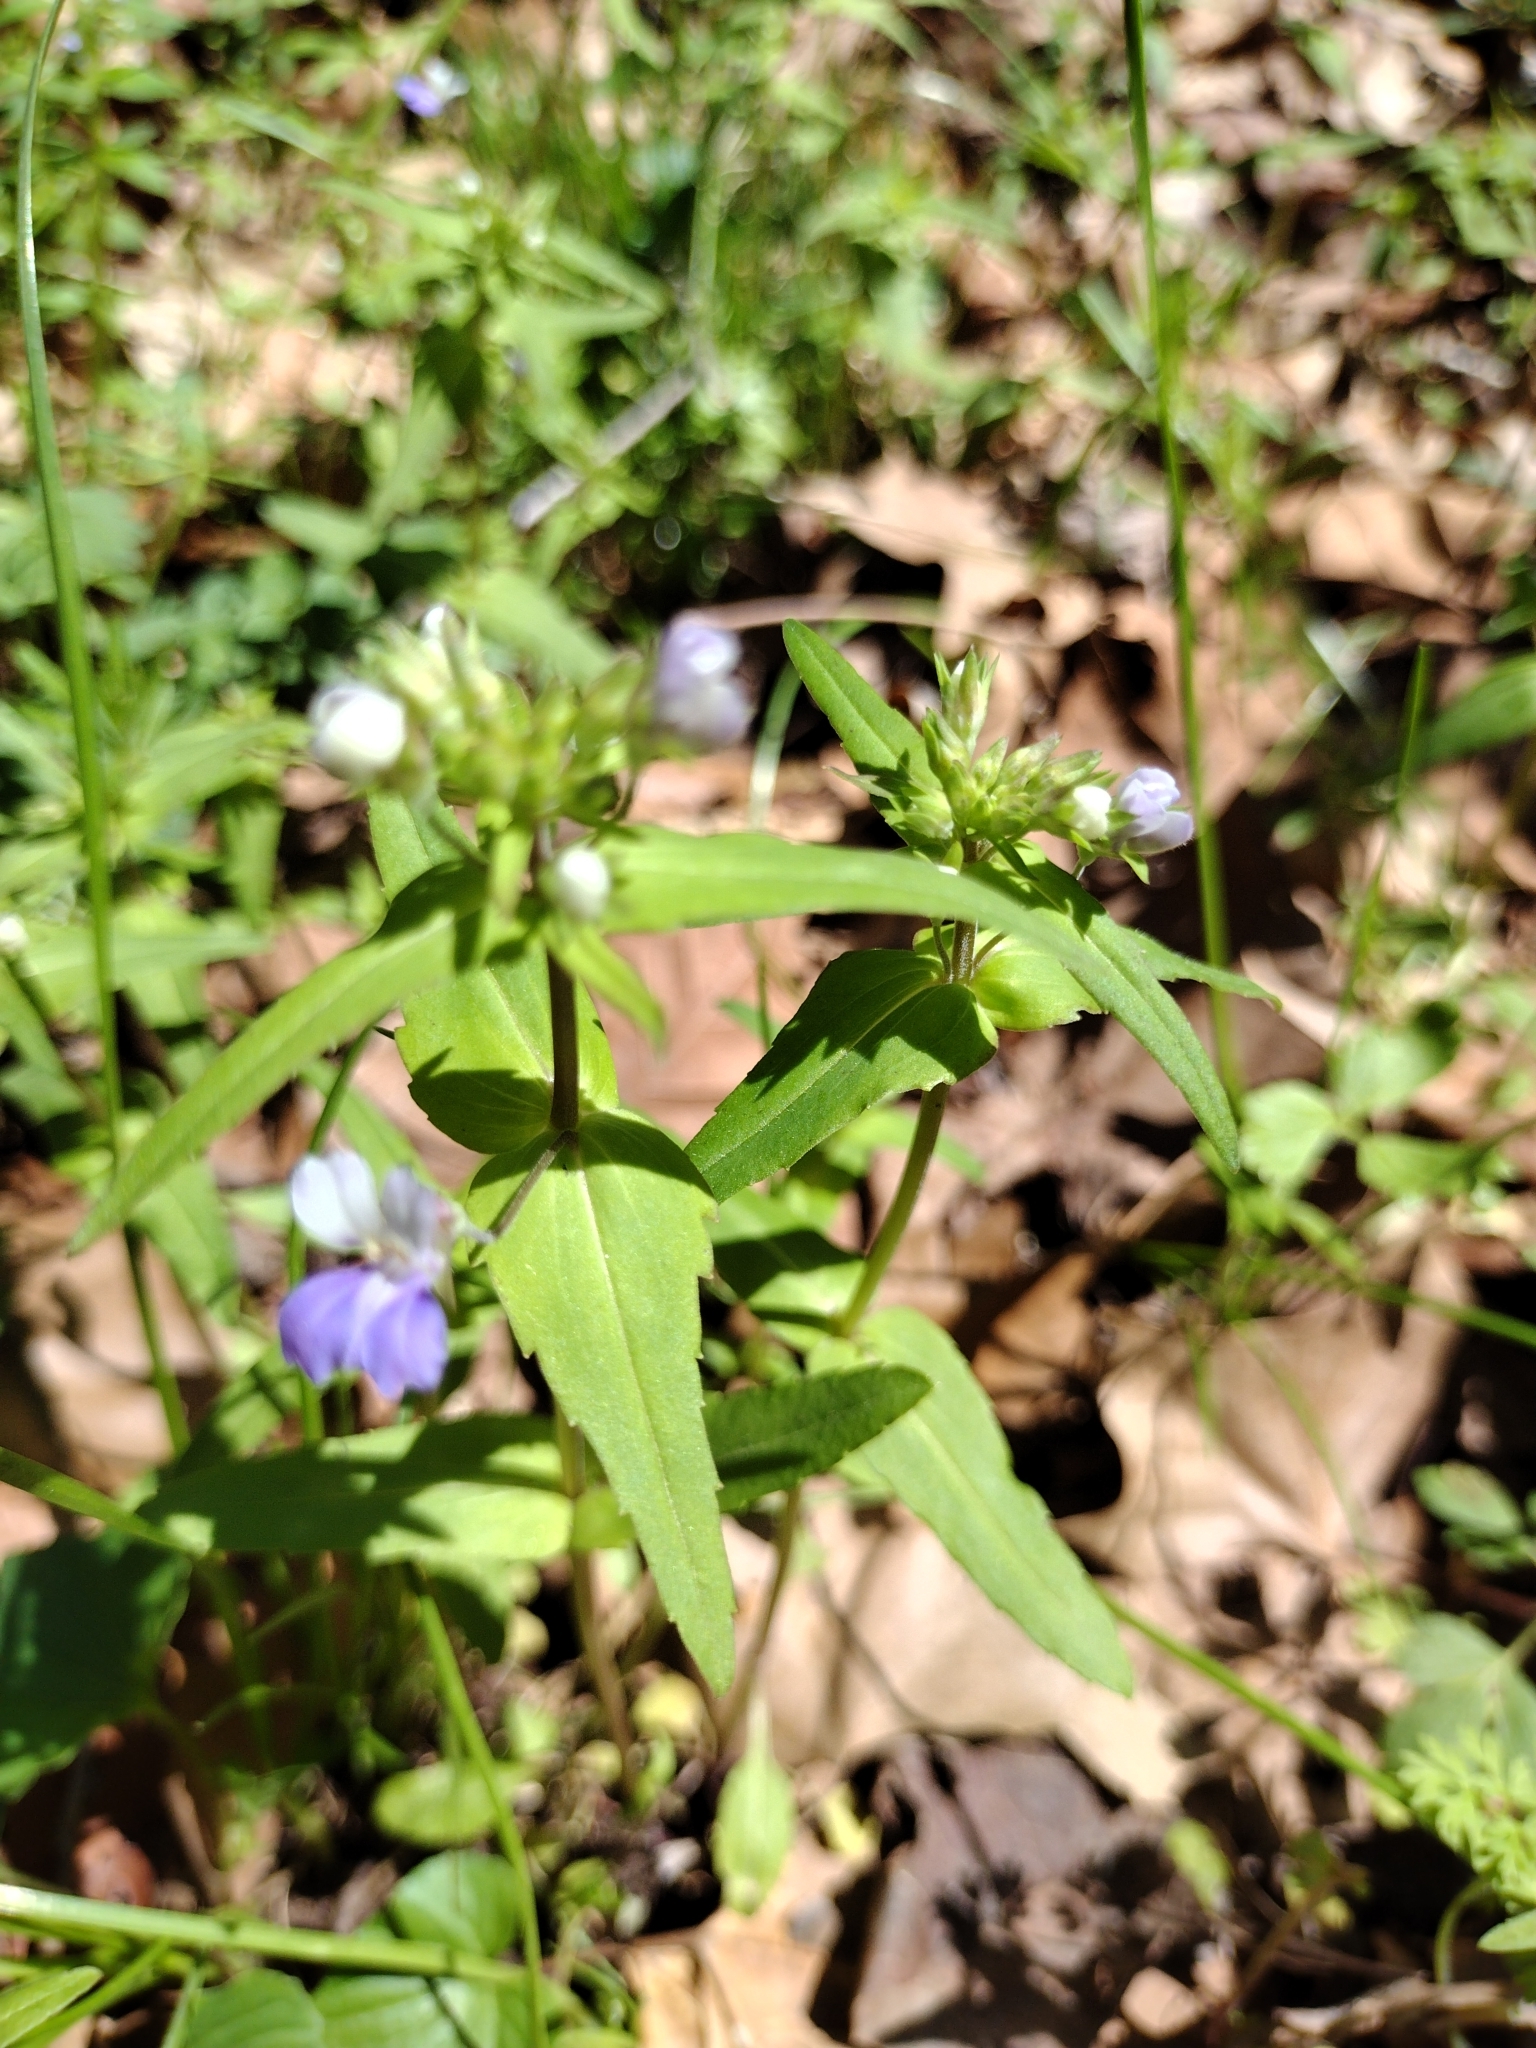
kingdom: Plantae
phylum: Tracheophyta
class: Magnoliopsida
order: Lamiales
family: Plantaginaceae
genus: Collinsia
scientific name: Collinsia verna
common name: Broad-leaved collinsia
